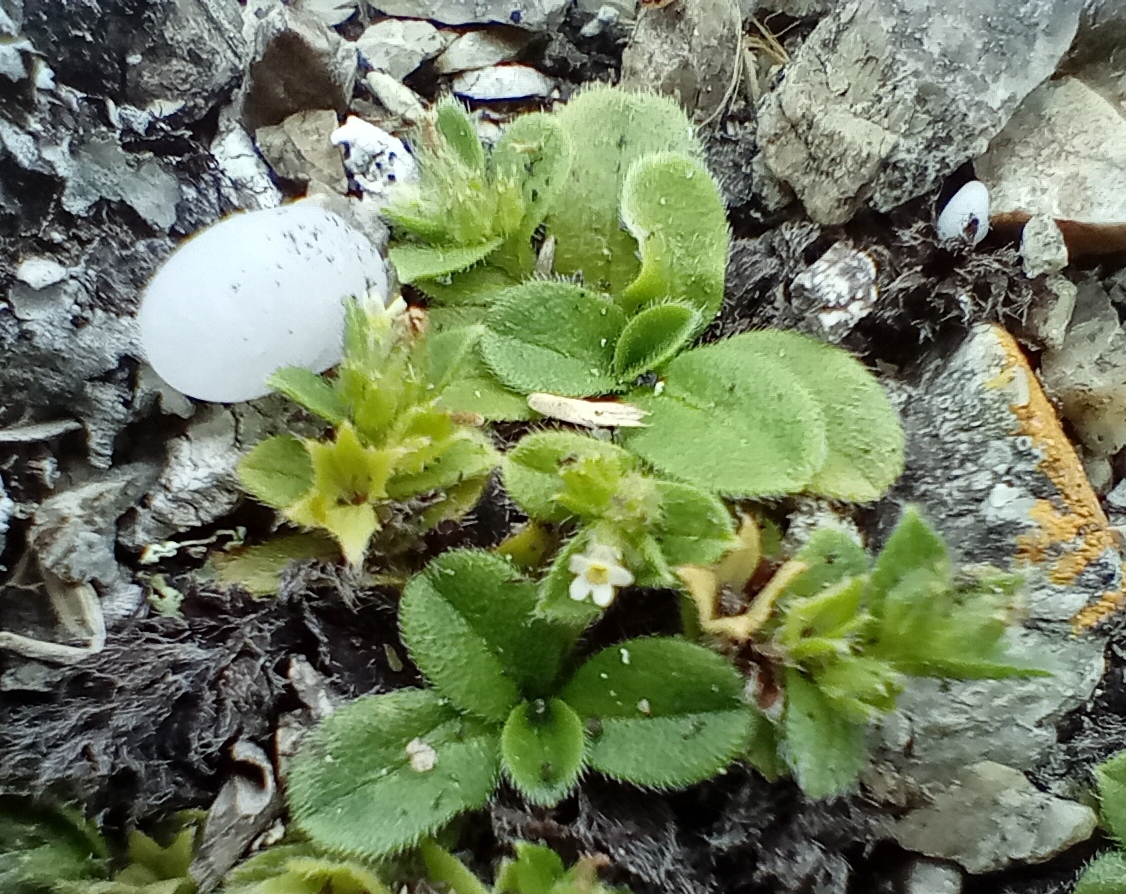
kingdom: Plantae
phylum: Tracheophyta
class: Magnoliopsida
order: Boraginales
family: Boraginaceae
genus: Myosotis
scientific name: Myosotis antarctica
